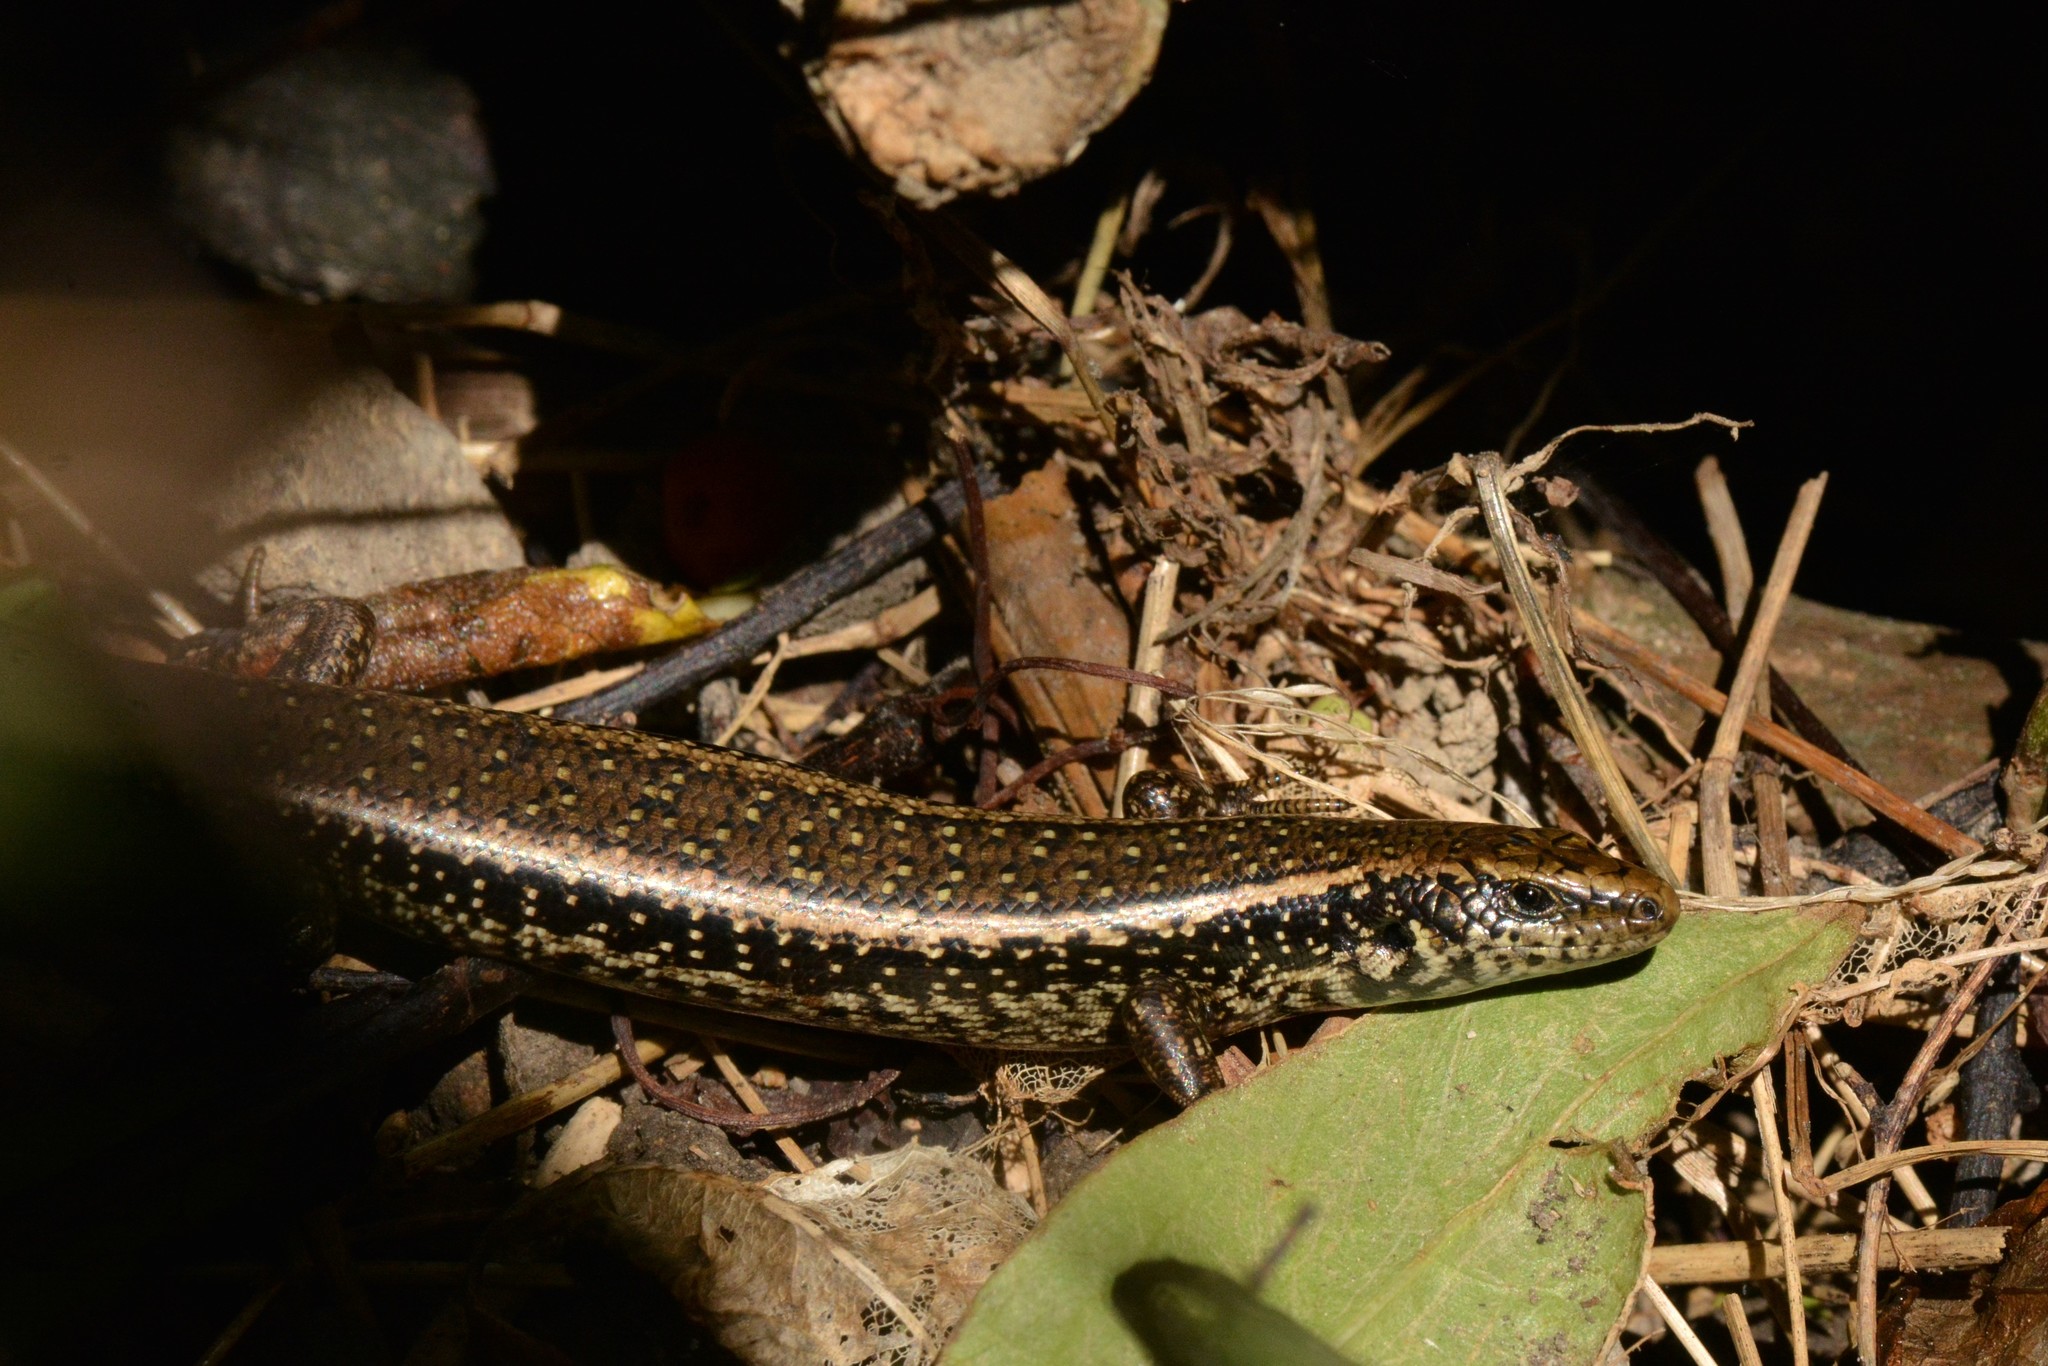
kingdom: Animalia
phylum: Chordata
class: Squamata
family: Scincidae
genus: Oligosoma
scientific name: Oligosoma kokowai
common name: Northern spotted skink
